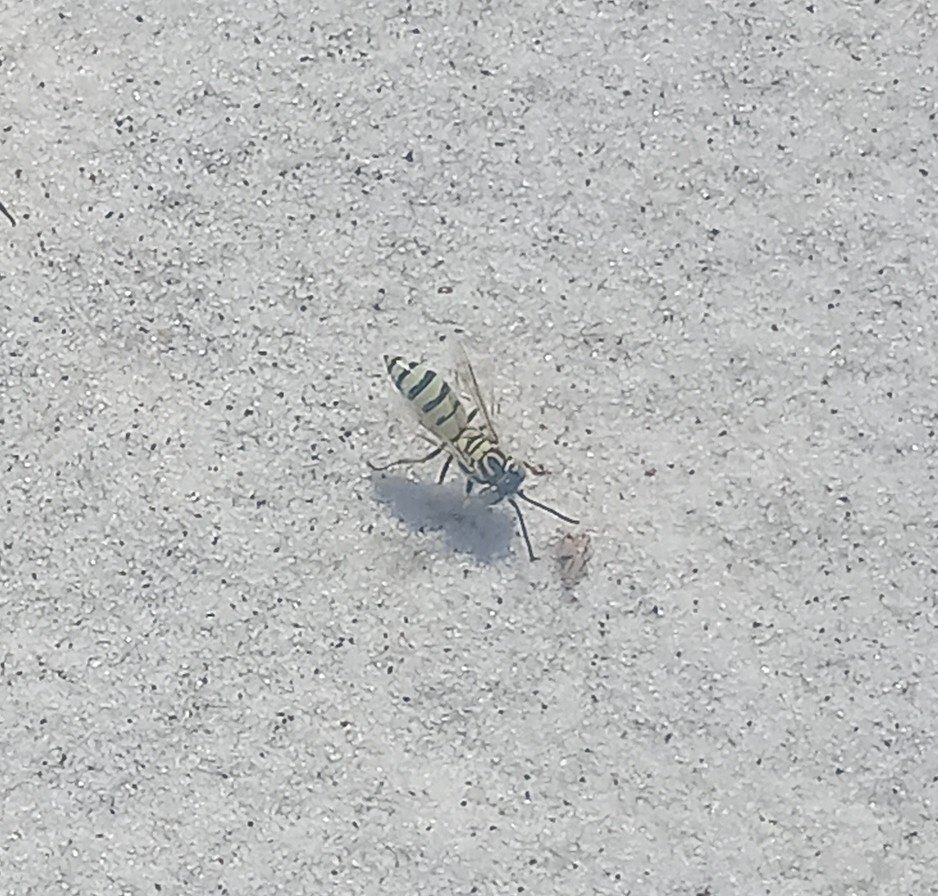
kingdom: Animalia
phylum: Arthropoda
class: Insecta
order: Hymenoptera
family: Crabronidae
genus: Microbembex
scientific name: Microbembex monodonta
